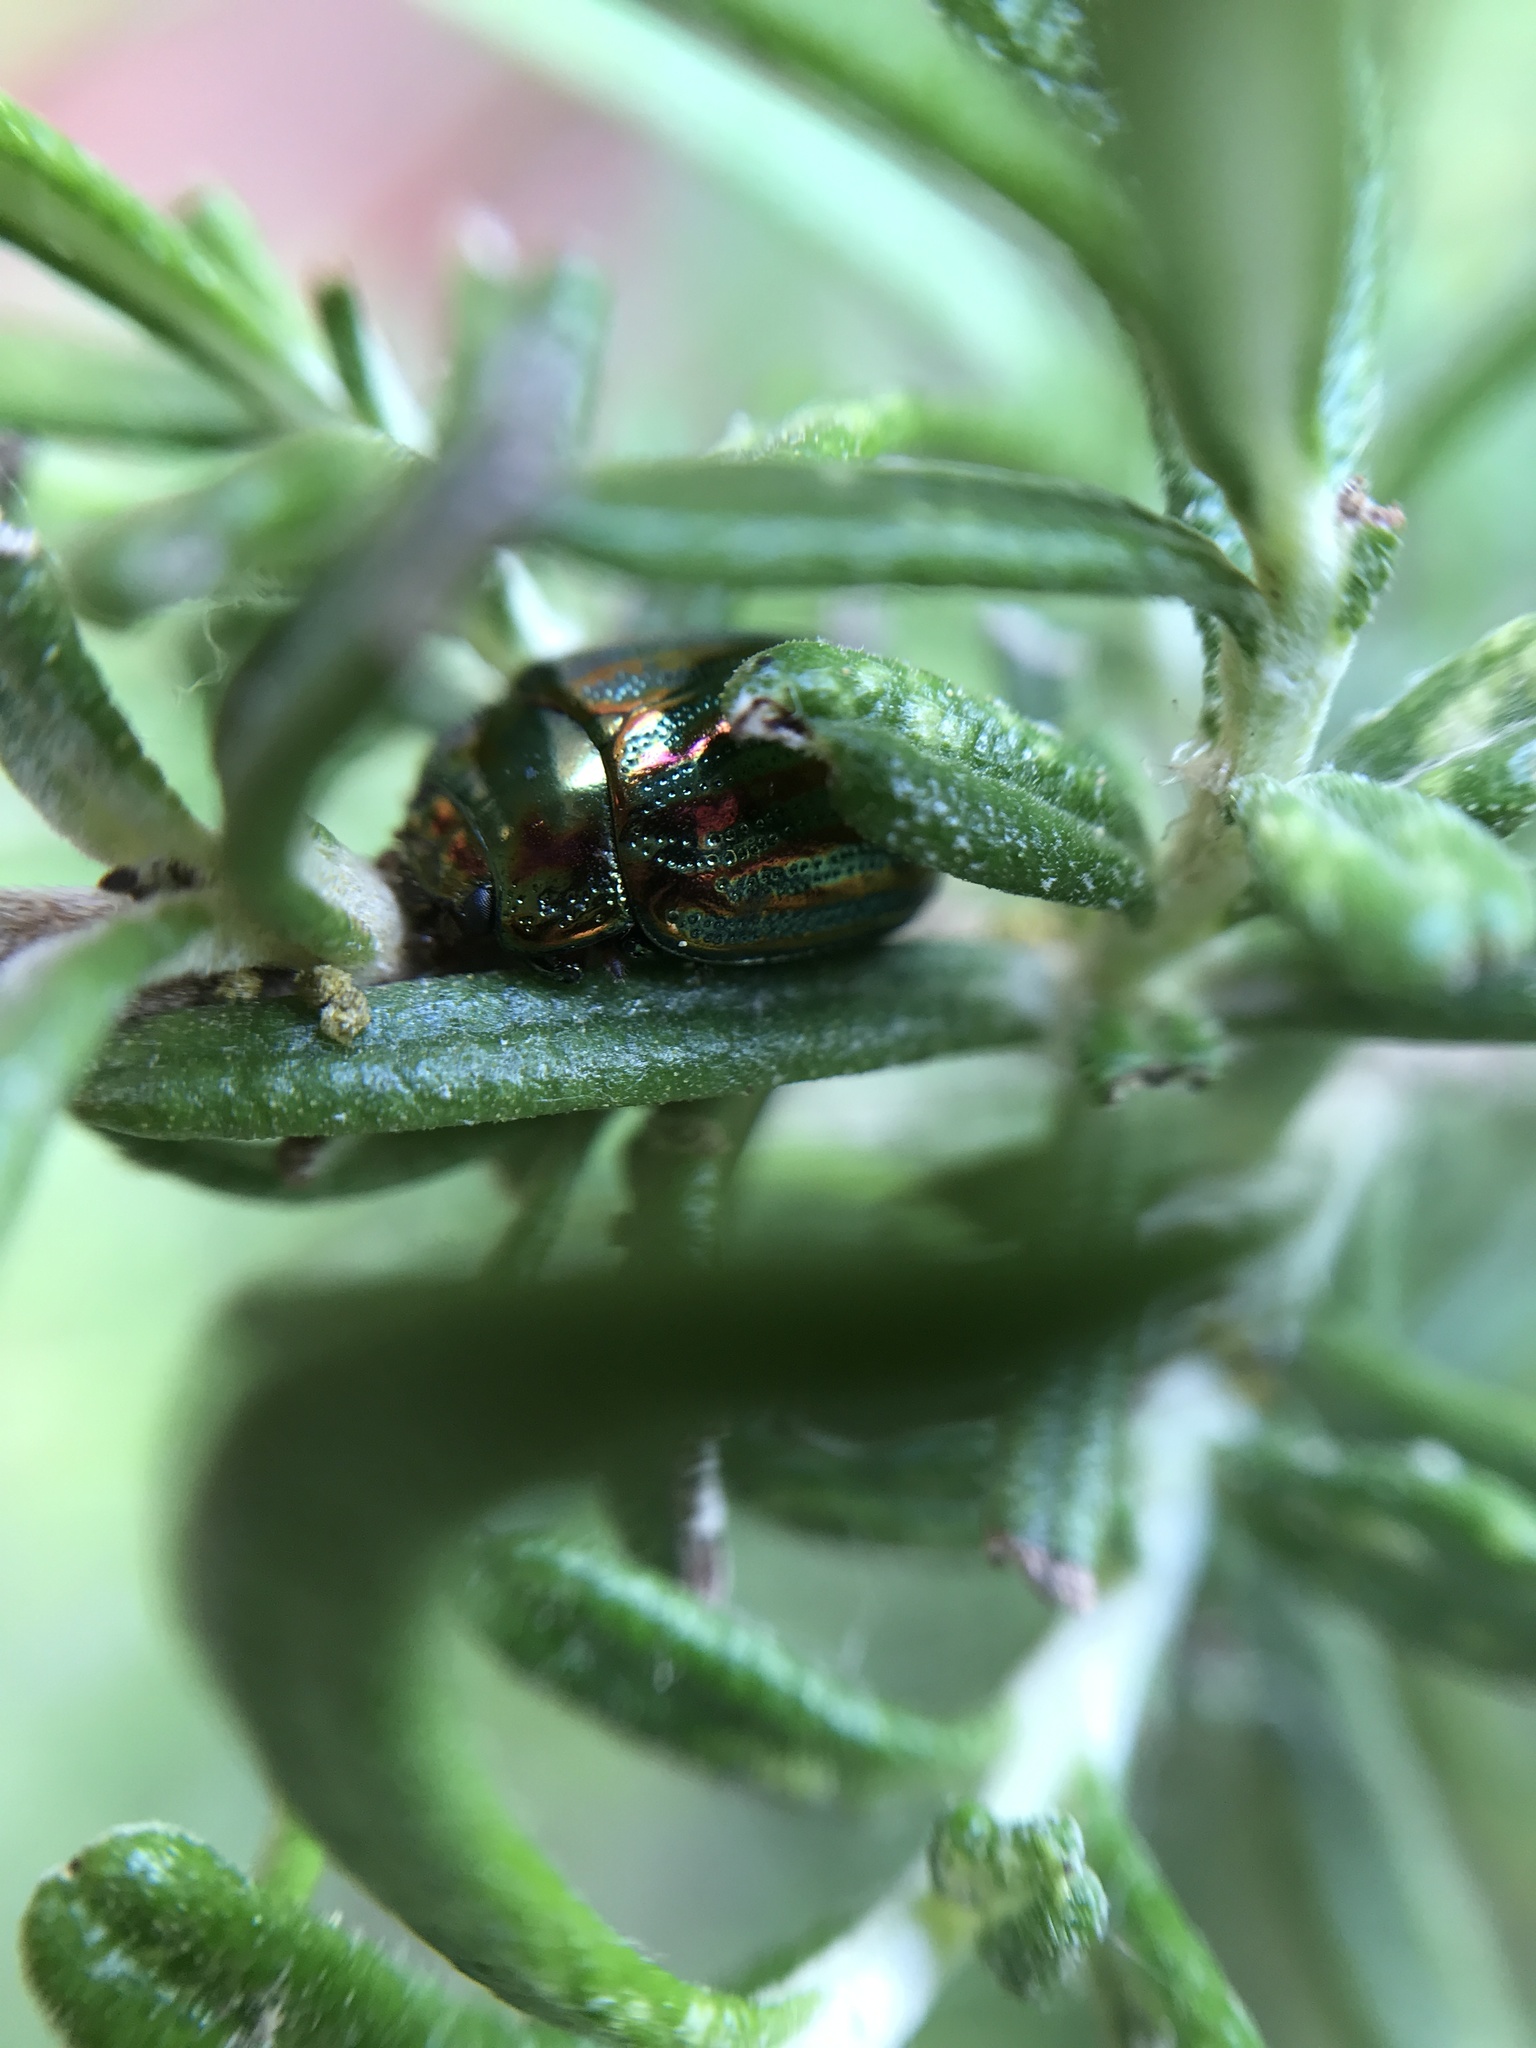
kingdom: Animalia
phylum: Arthropoda
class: Insecta
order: Coleoptera
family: Chrysomelidae
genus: Chrysolina
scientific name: Chrysolina americana
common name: Rosemary beetle
